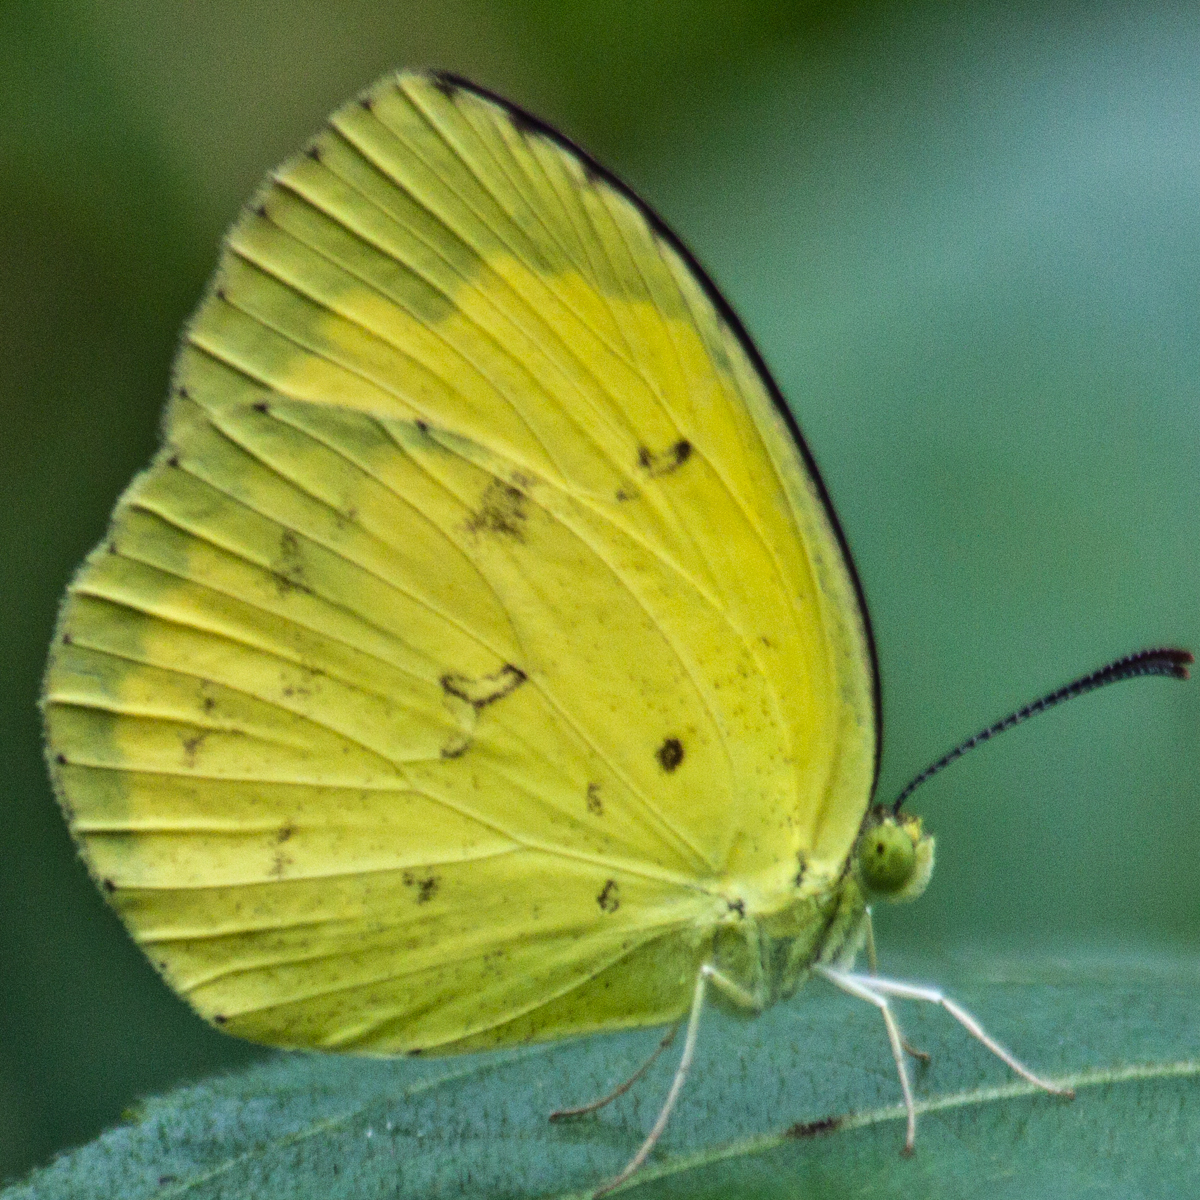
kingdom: Animalia
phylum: Arthropoda
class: Insecta
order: Lepidoptera
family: Pieridae
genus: Eurema
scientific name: Eurema hecabe
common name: Pale grass yellow
